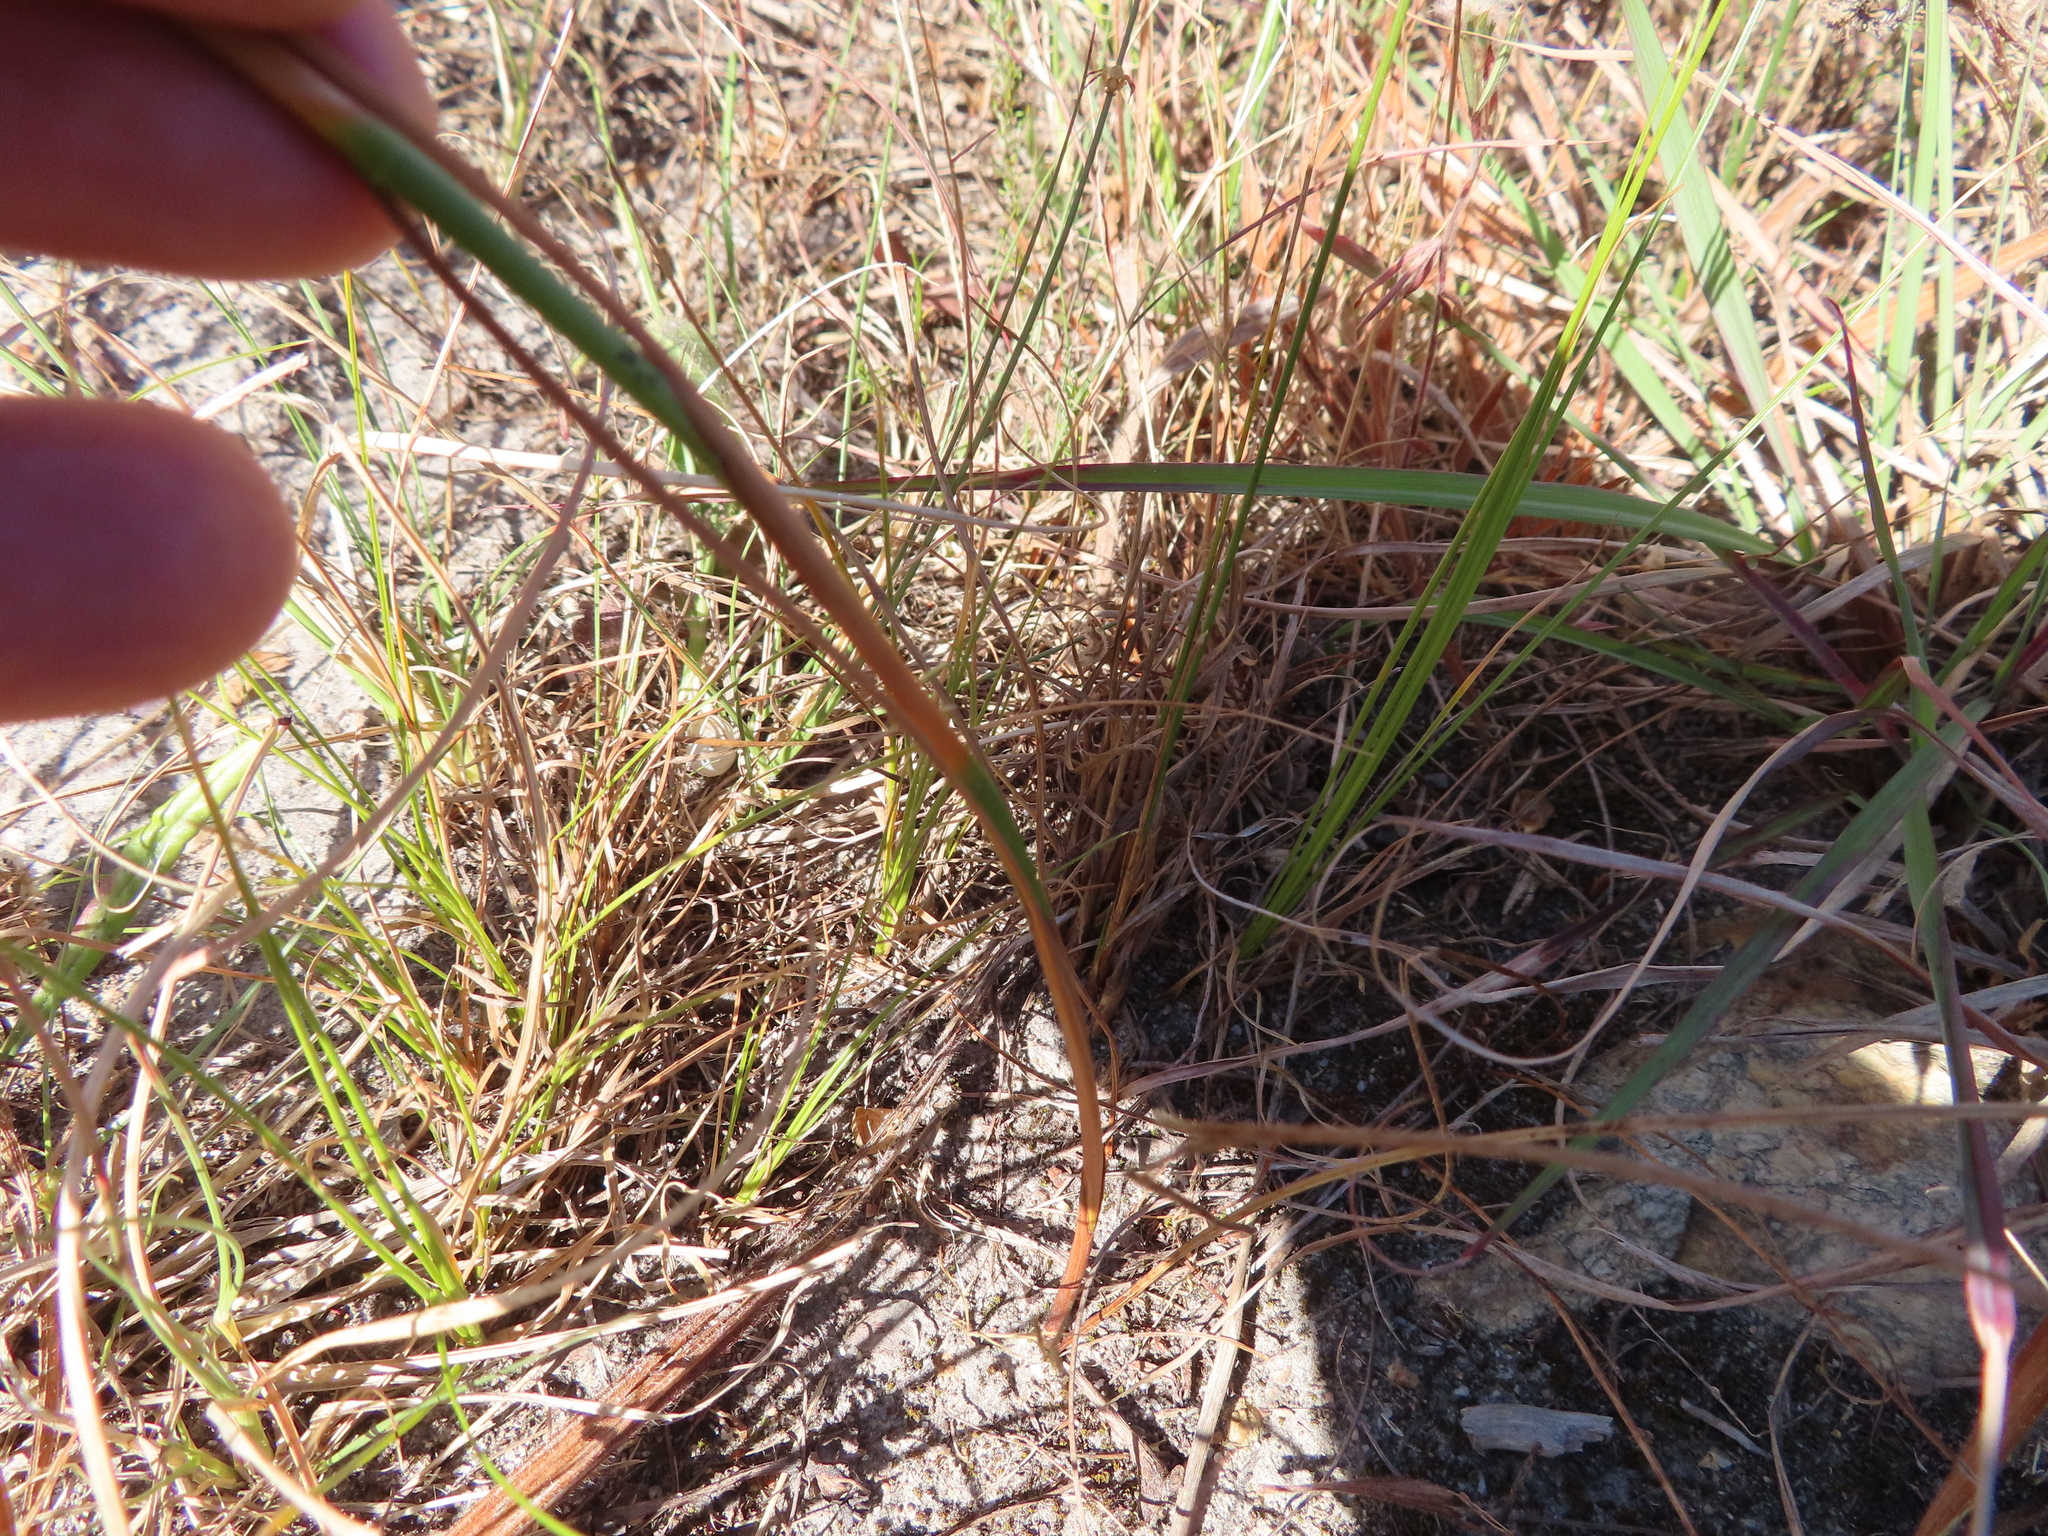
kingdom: Plantae
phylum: Tracheophyta
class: Liliopsida
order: Asparagales
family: Iridaceae
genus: Thereianthus
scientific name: Thereianthus bracteolatus
